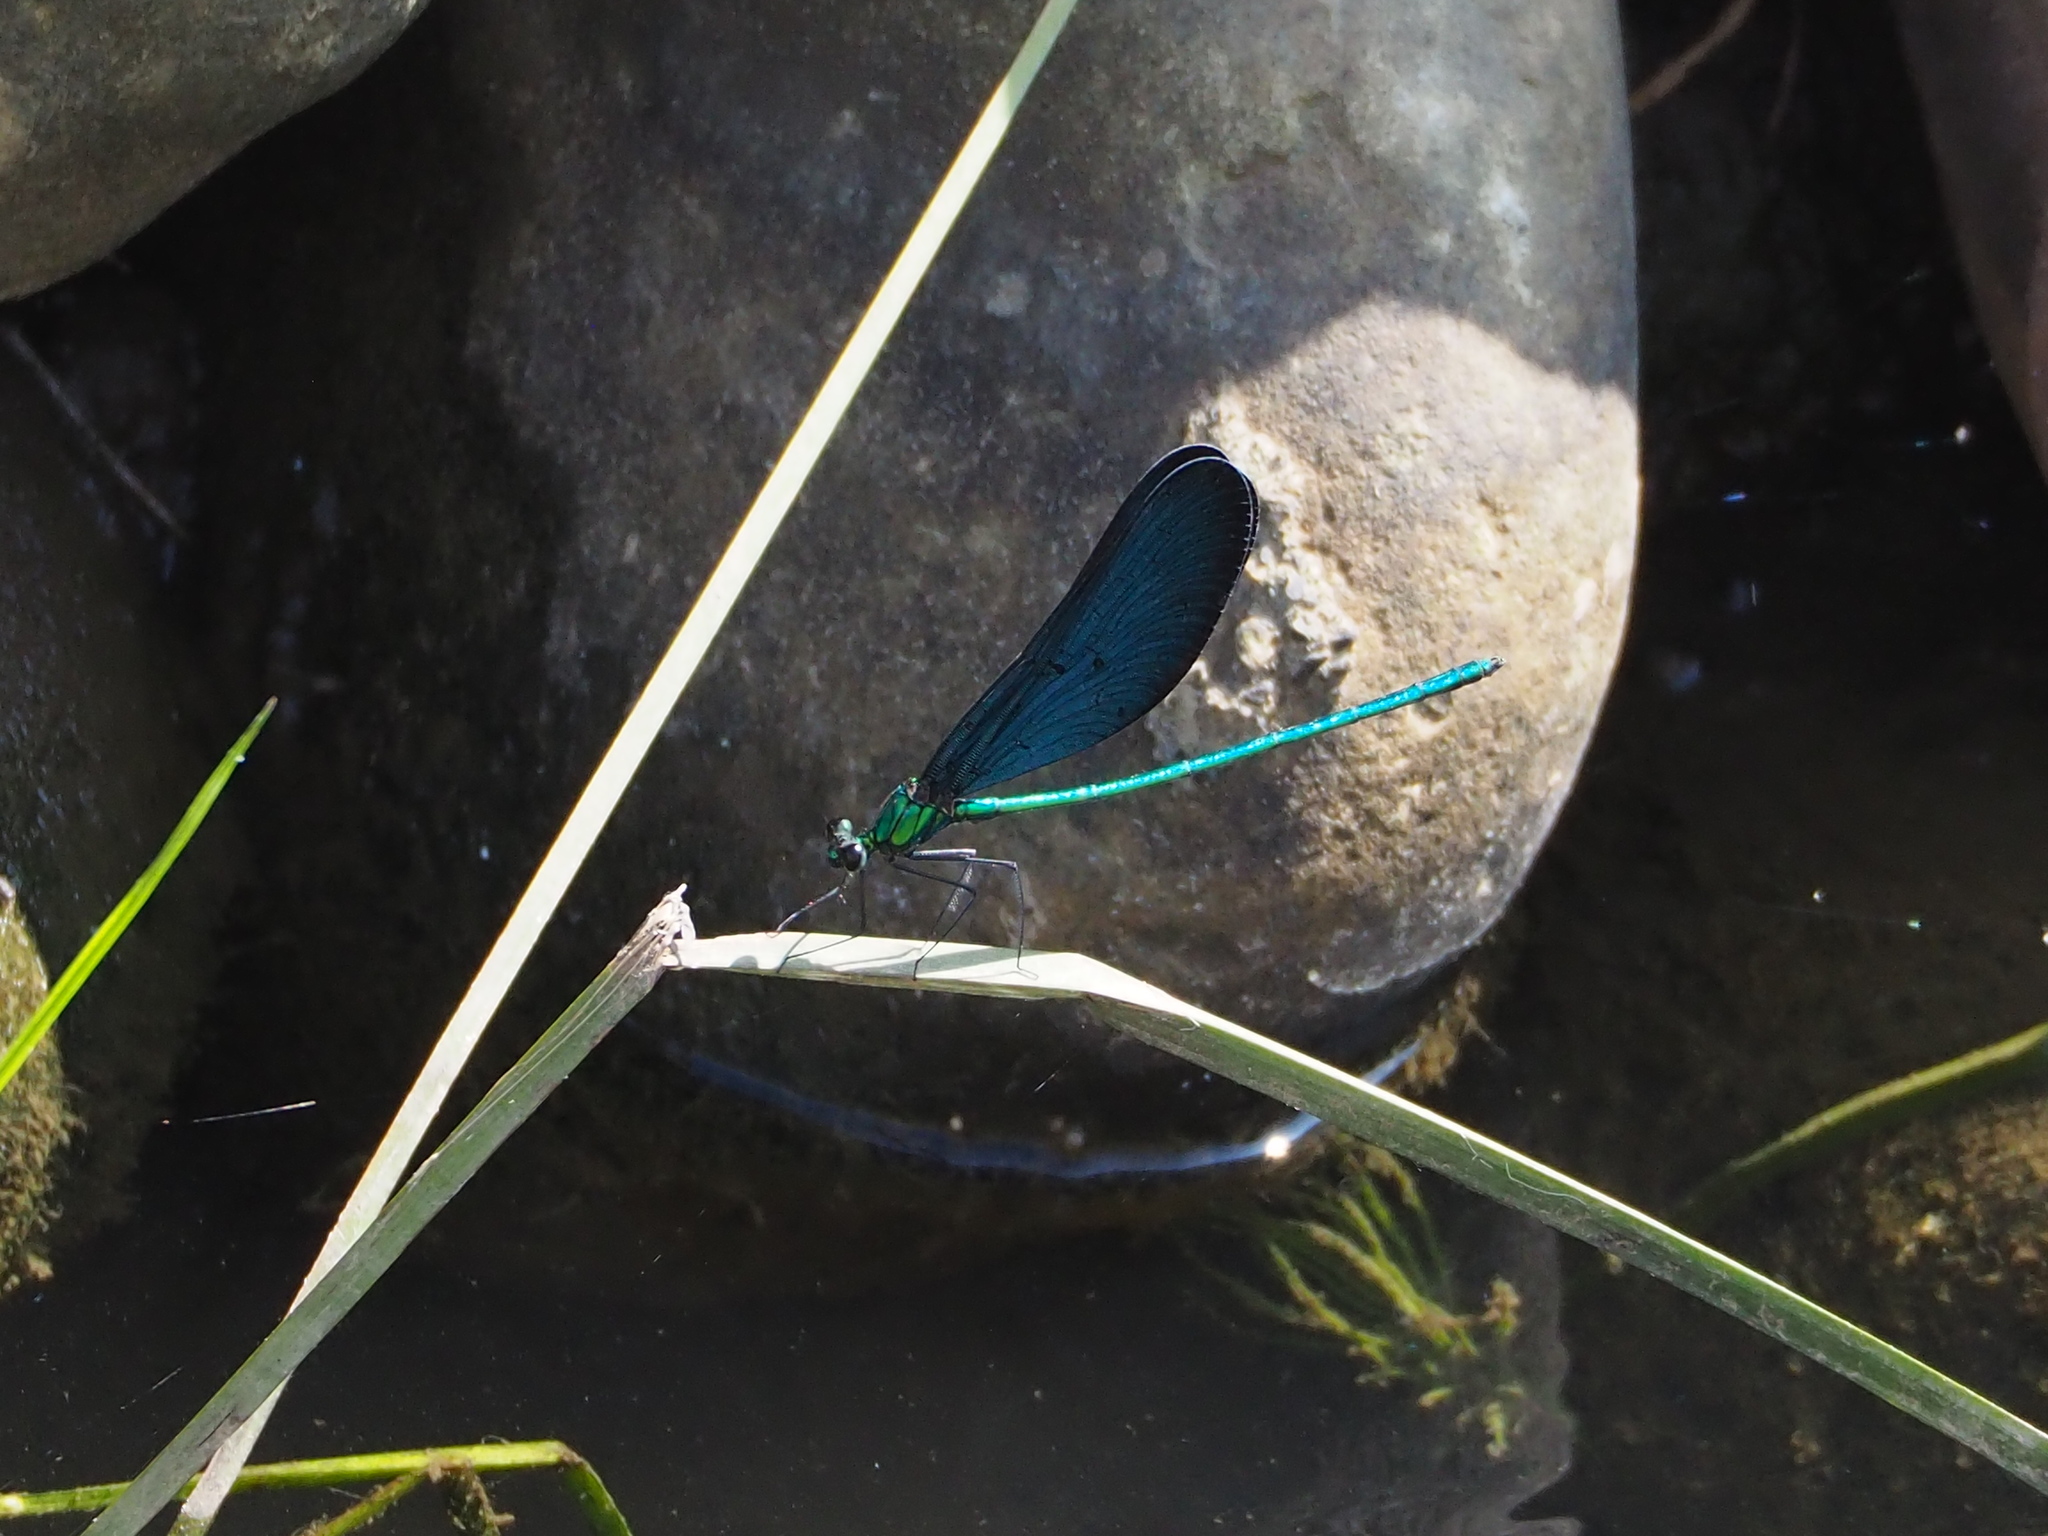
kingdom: Animalia
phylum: Arthropoda
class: Insecta
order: Odonata
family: Calopterygidae
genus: Matrona
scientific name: Matrona cyanoptera
